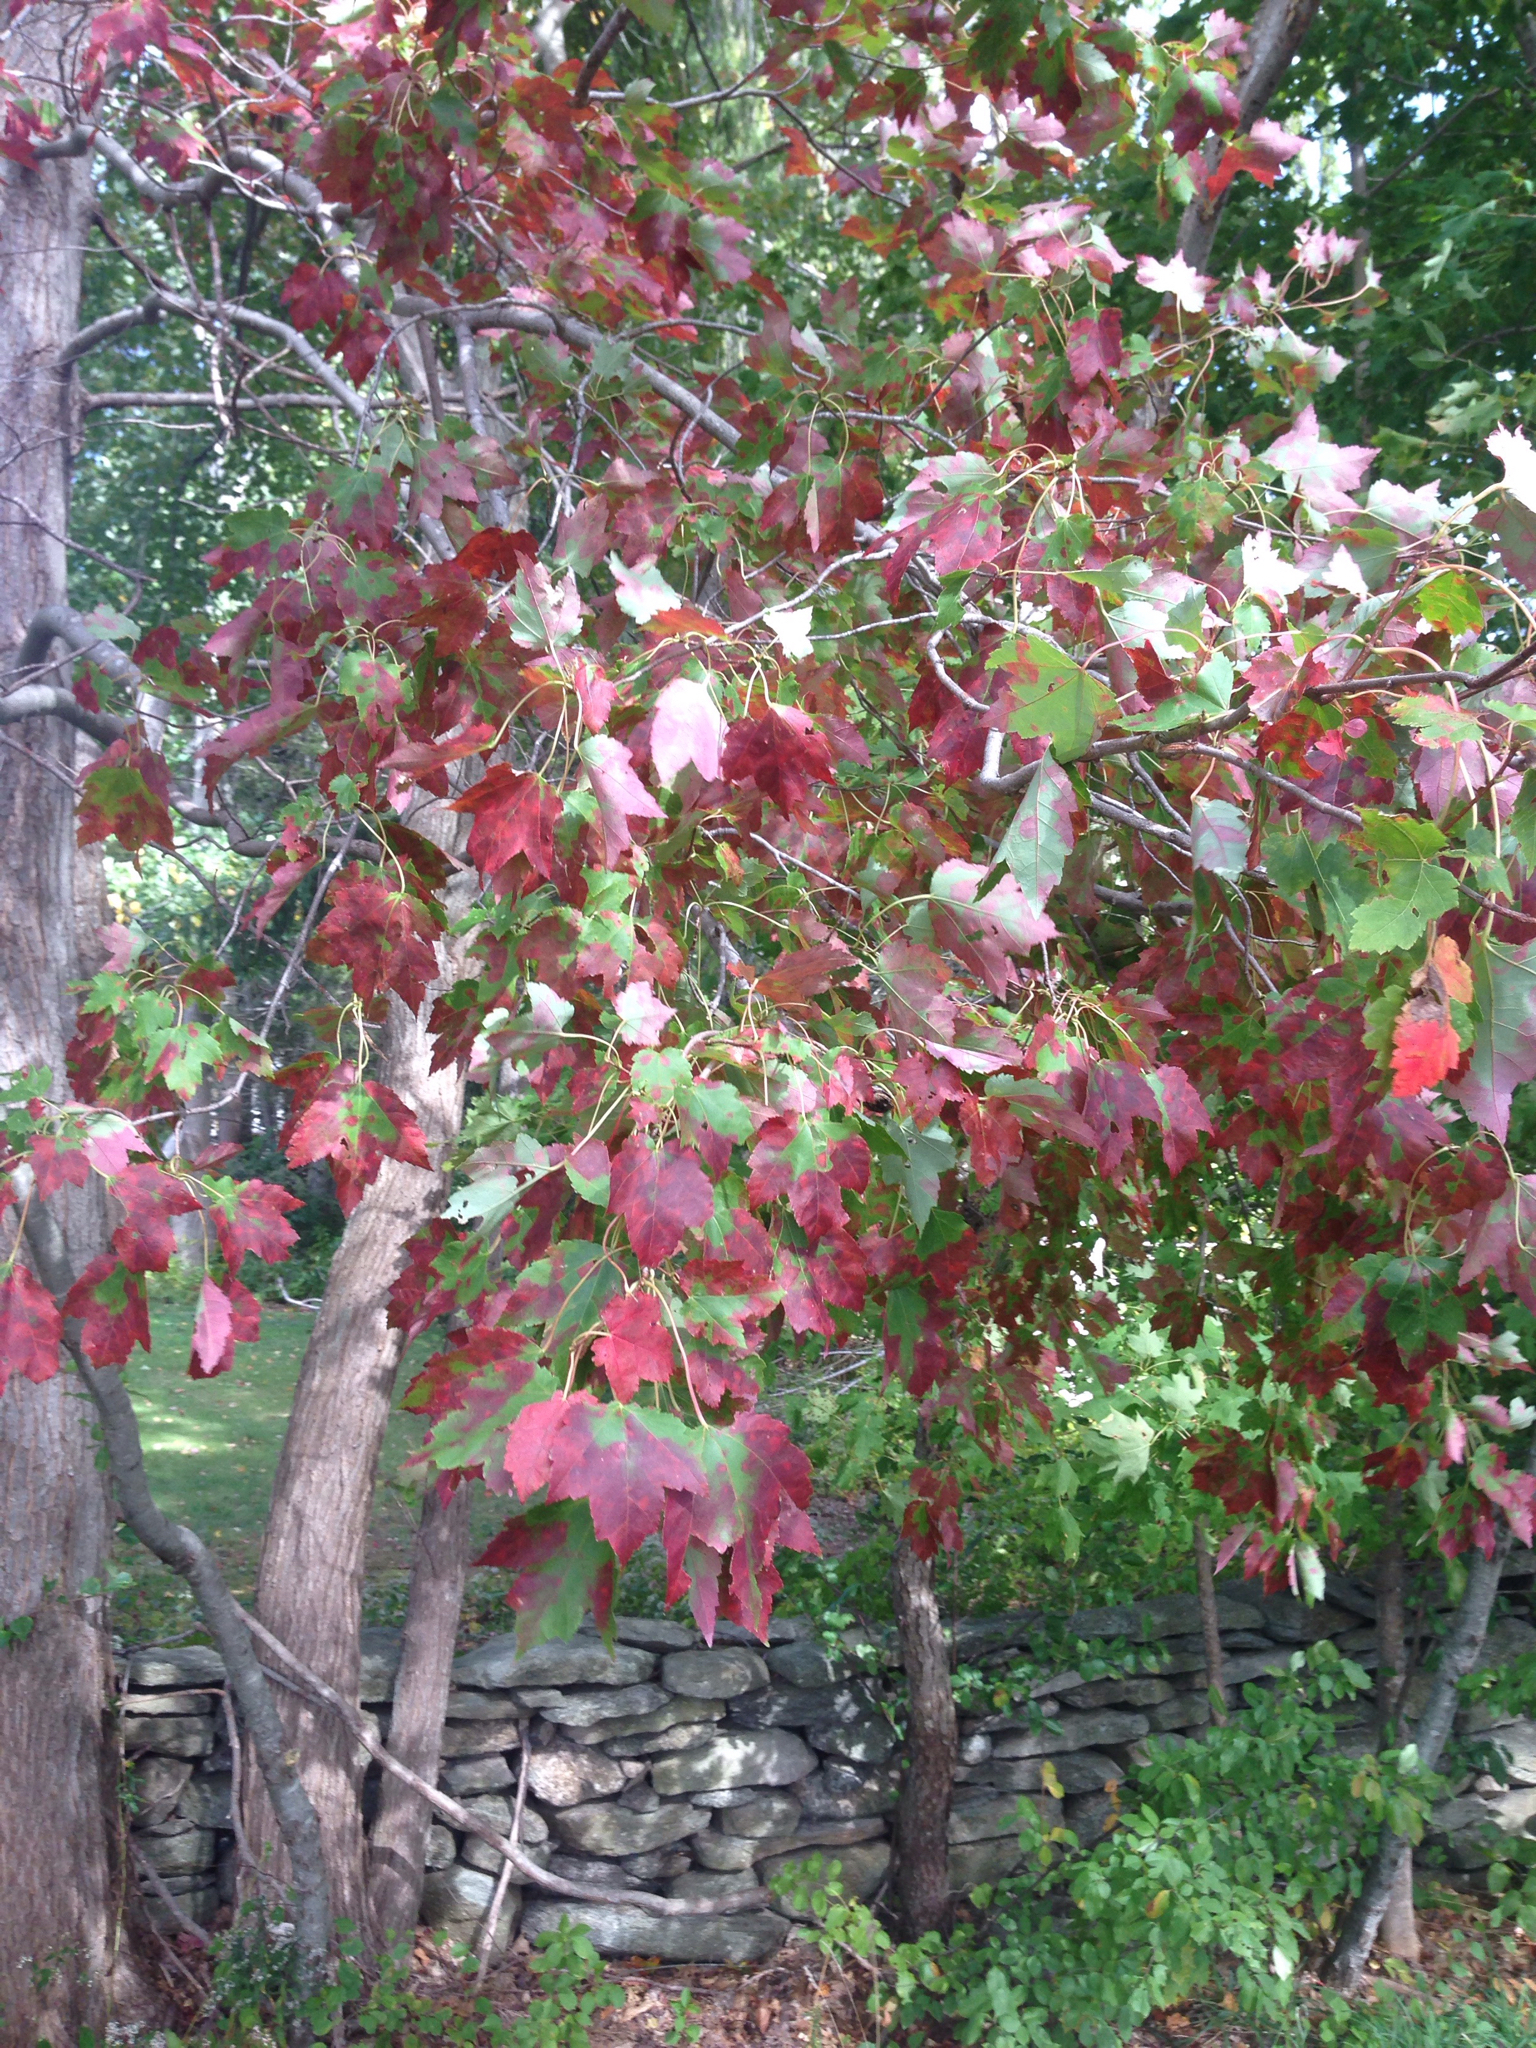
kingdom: Plantae
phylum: Tracheophyta
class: Magnoliopsida
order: Sapindales
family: Sapindaceae
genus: Acer
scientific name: Acer rubrum
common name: Red maple
